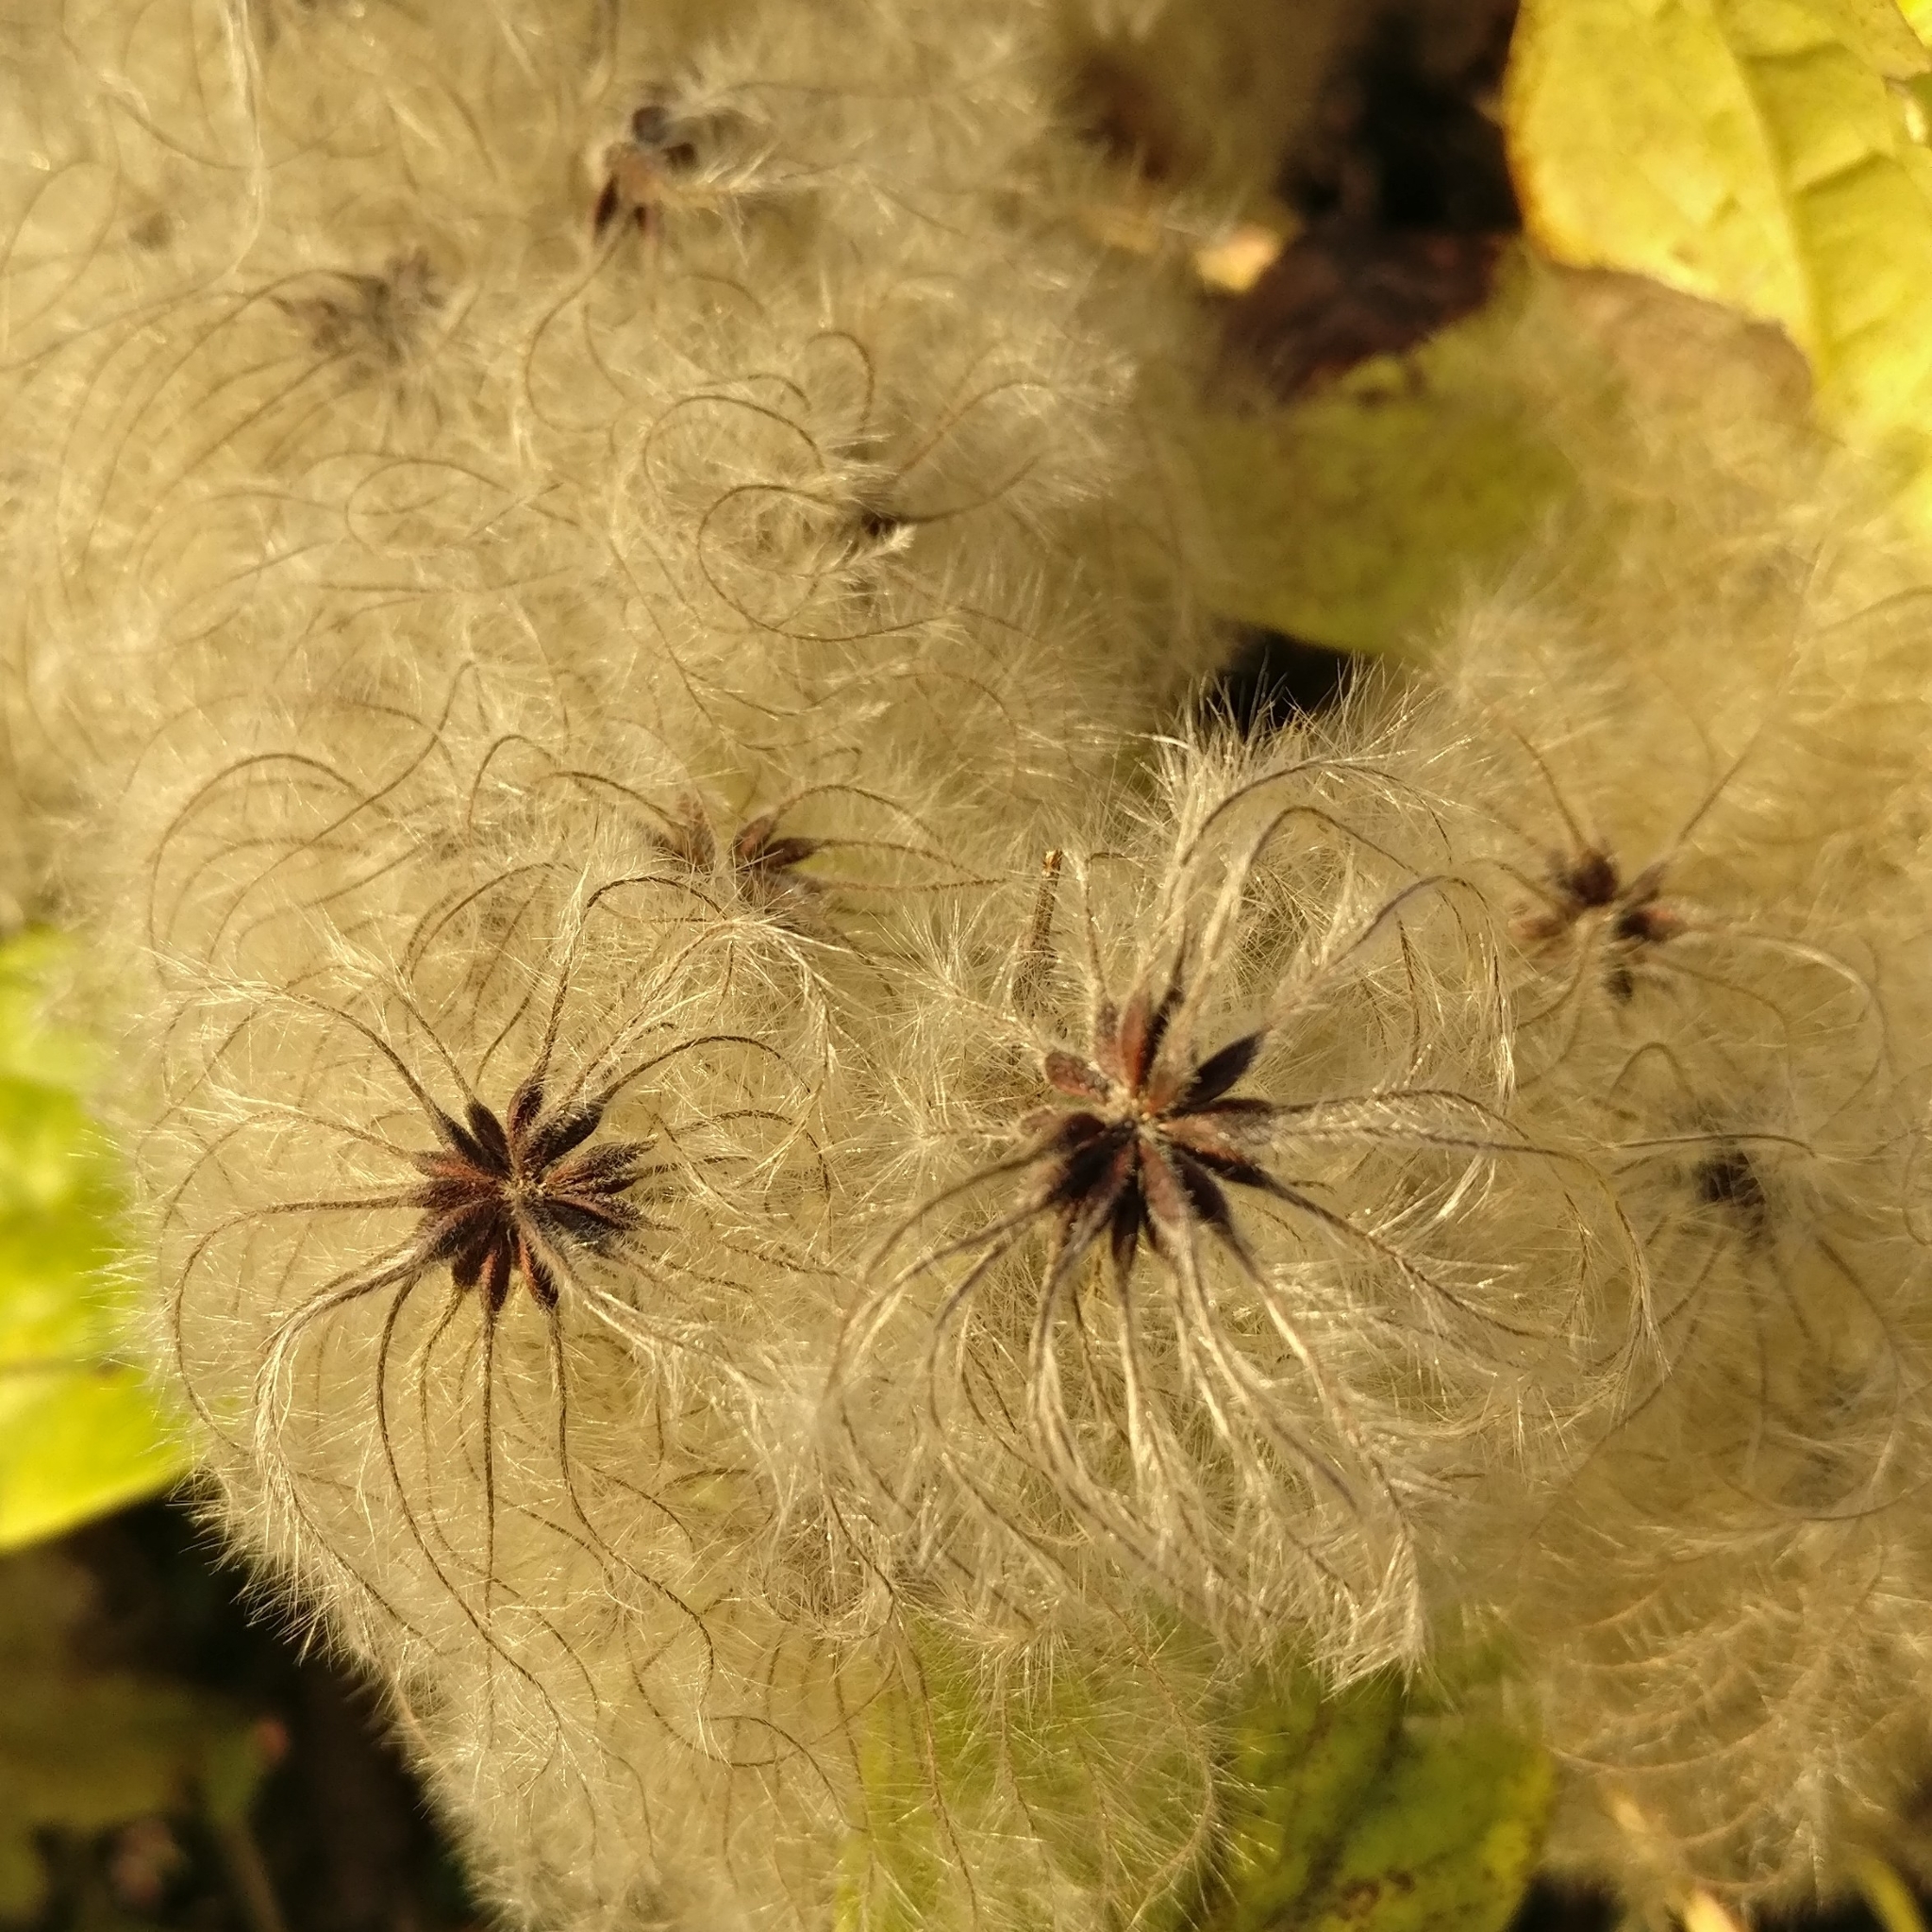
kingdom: Plantae
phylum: Tracheophyta
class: Magnoliopsida
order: Ranunculales
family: Ranunculaceae
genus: Clematis
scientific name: Clematis vitalba
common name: Evergreen clematis
